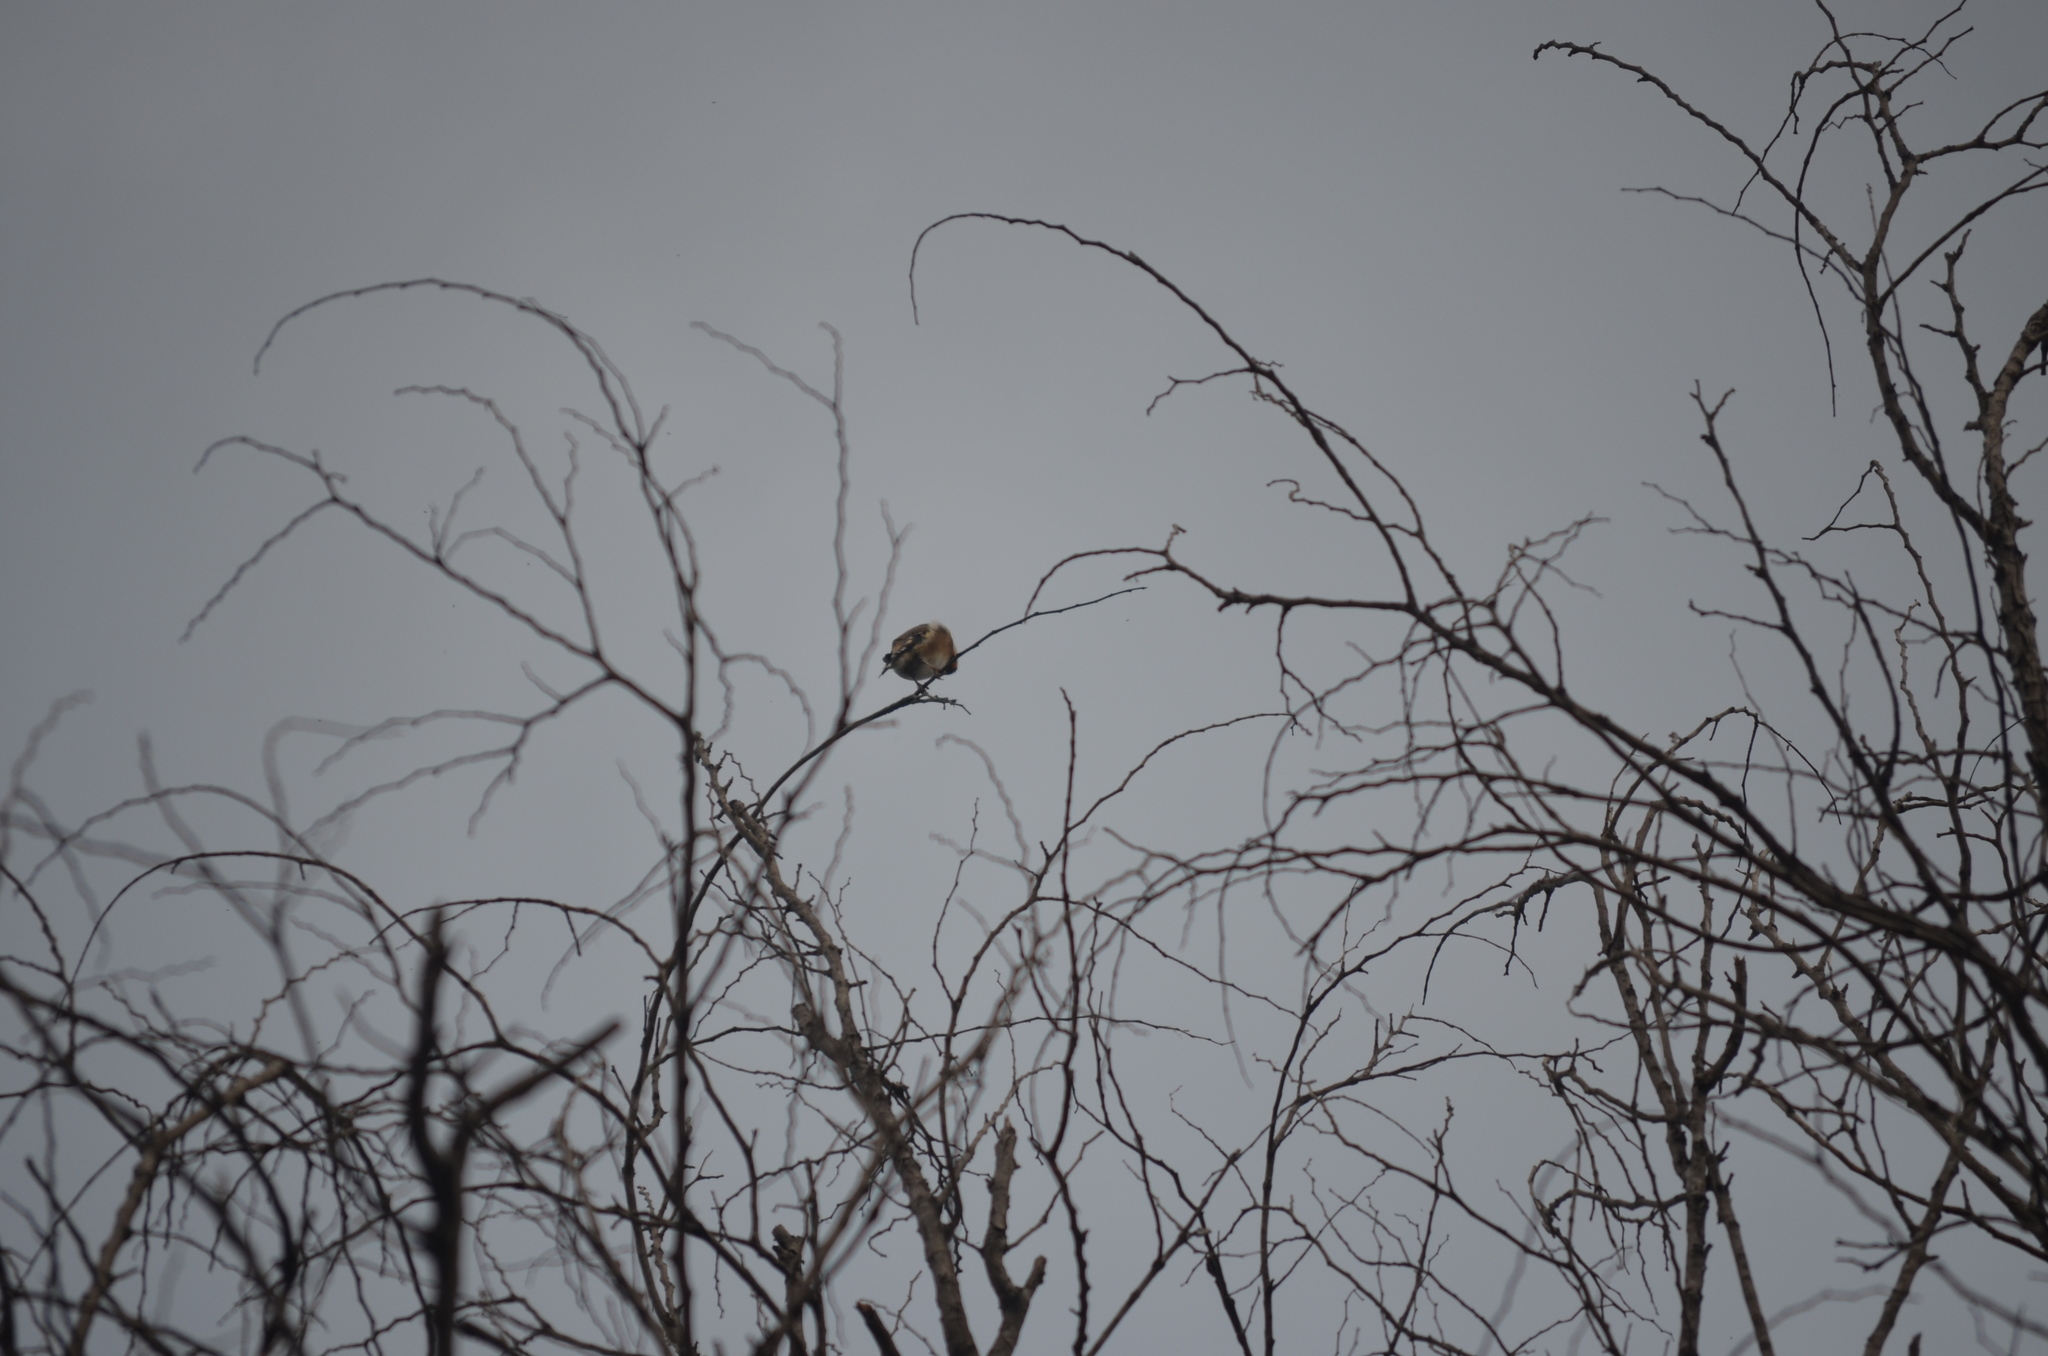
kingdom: Animalia
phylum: Chordata
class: Aves
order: Passeriformes
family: Fringillidae
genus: Carduelis
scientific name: Carduelis carduelis
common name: European goldfinch
